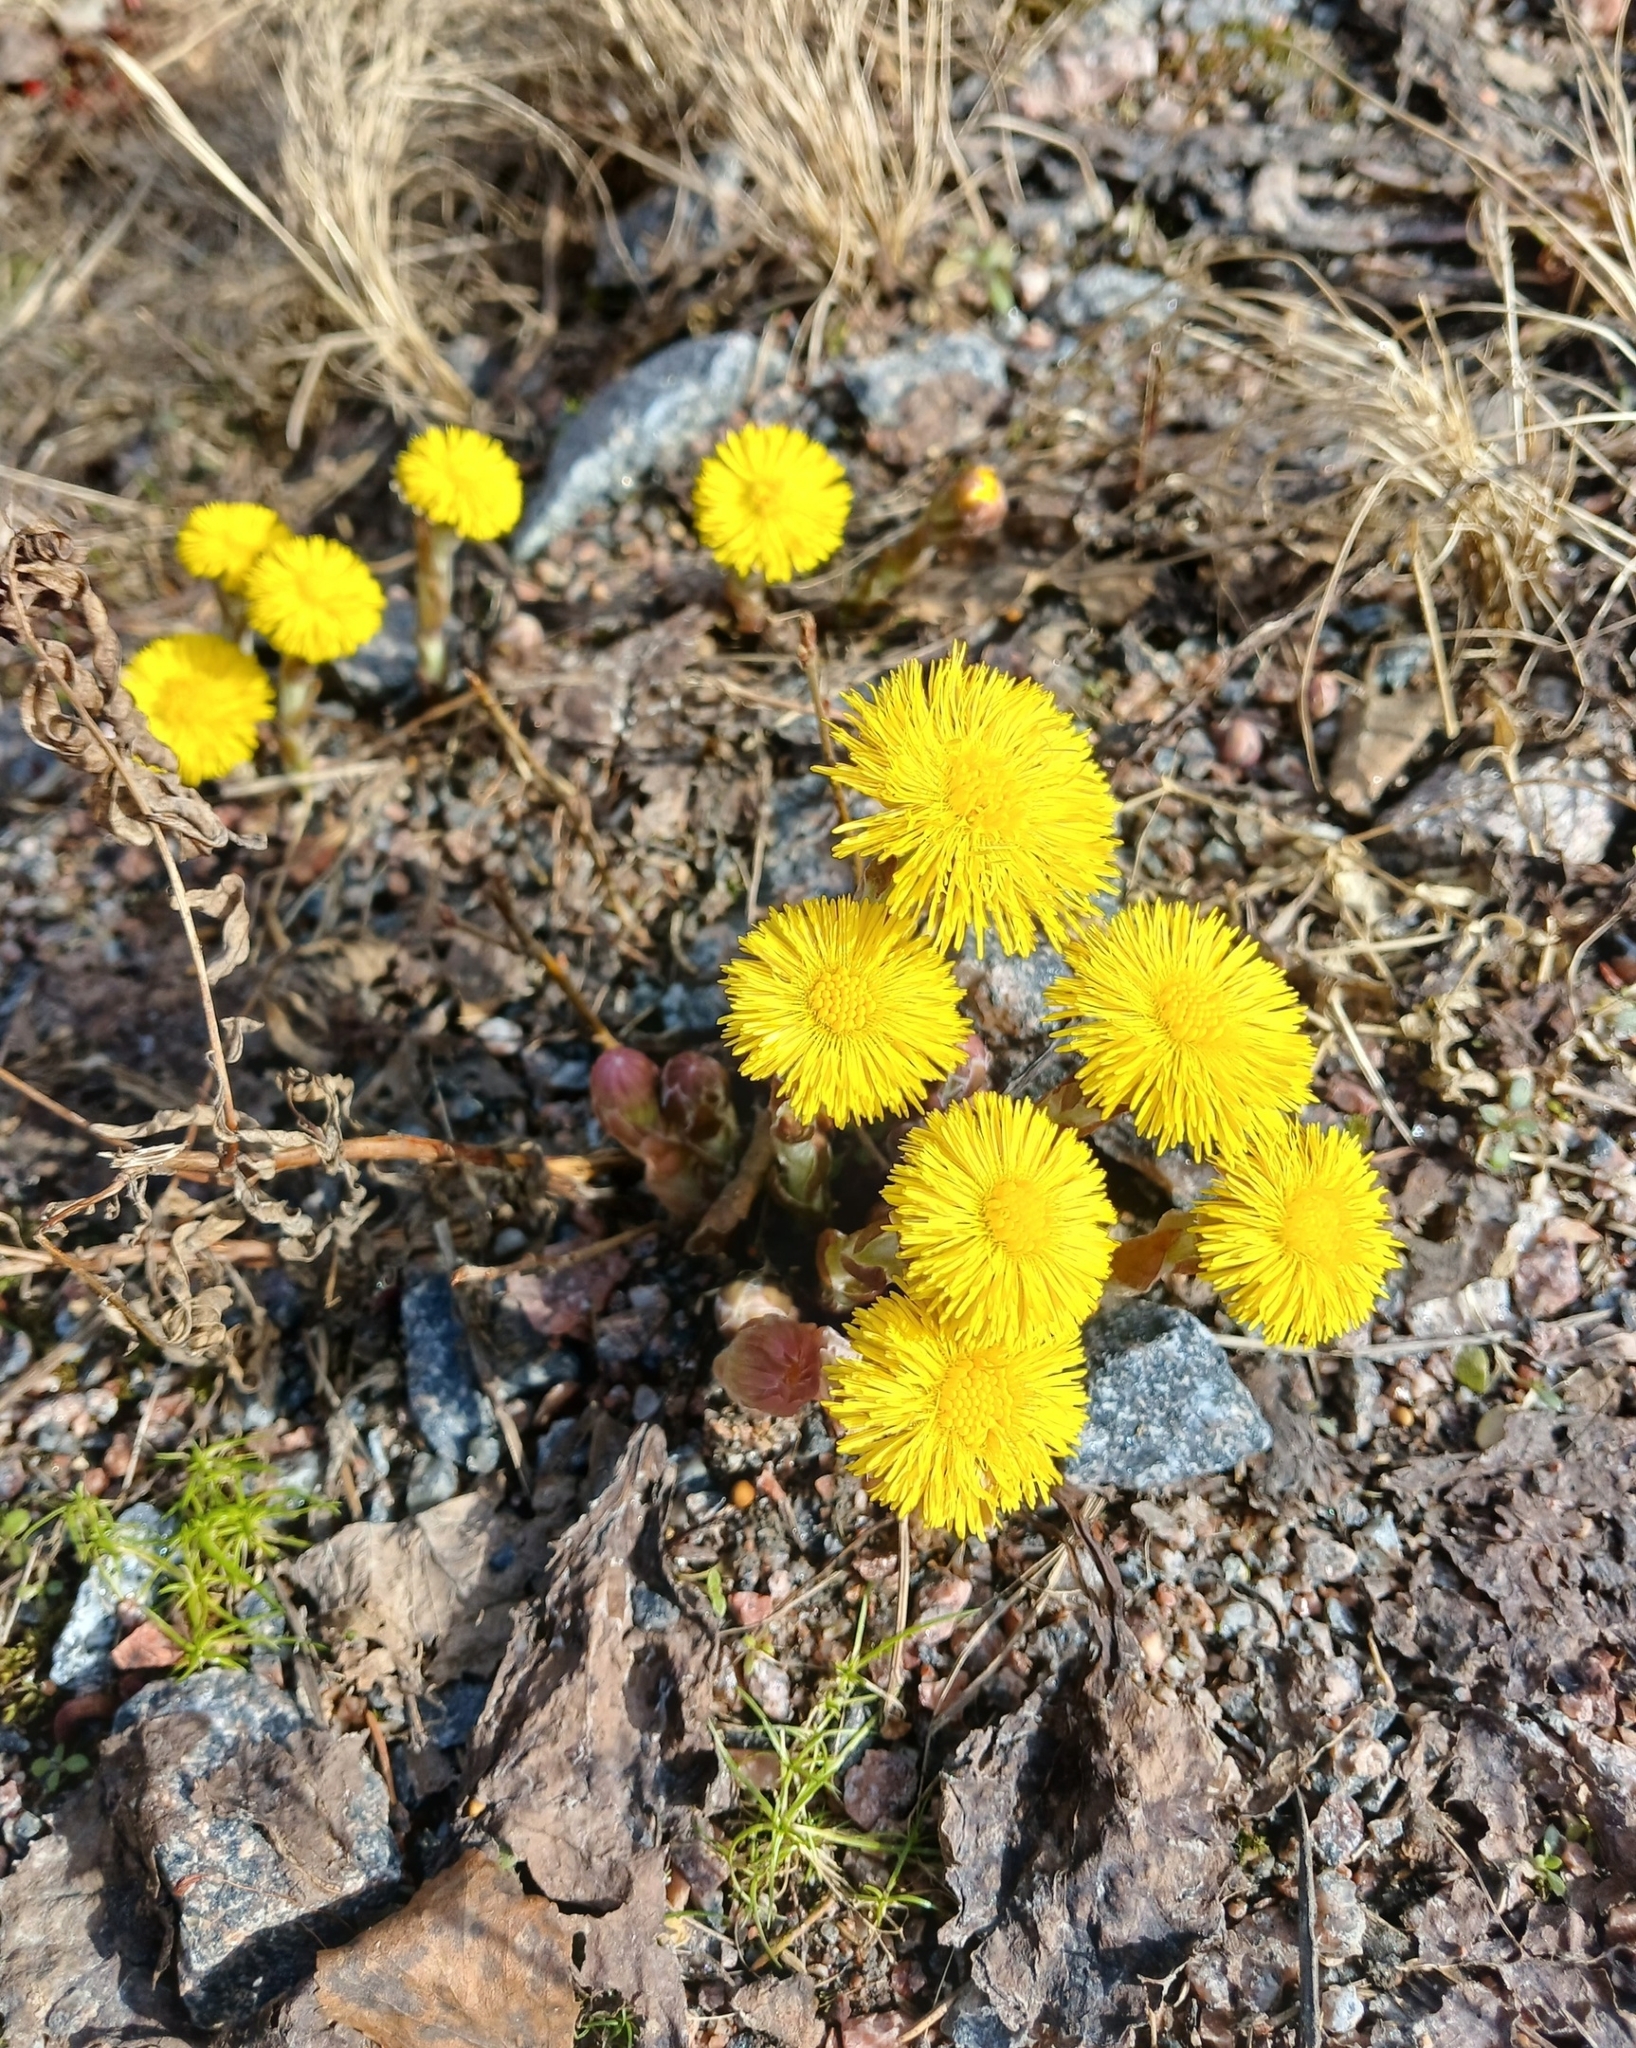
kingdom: Plantae
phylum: Tracheophyta
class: Magnoliopsida
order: Asterales
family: Asteraceae
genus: Tussilago
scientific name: Tussilago farfara
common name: Coltsfoot
